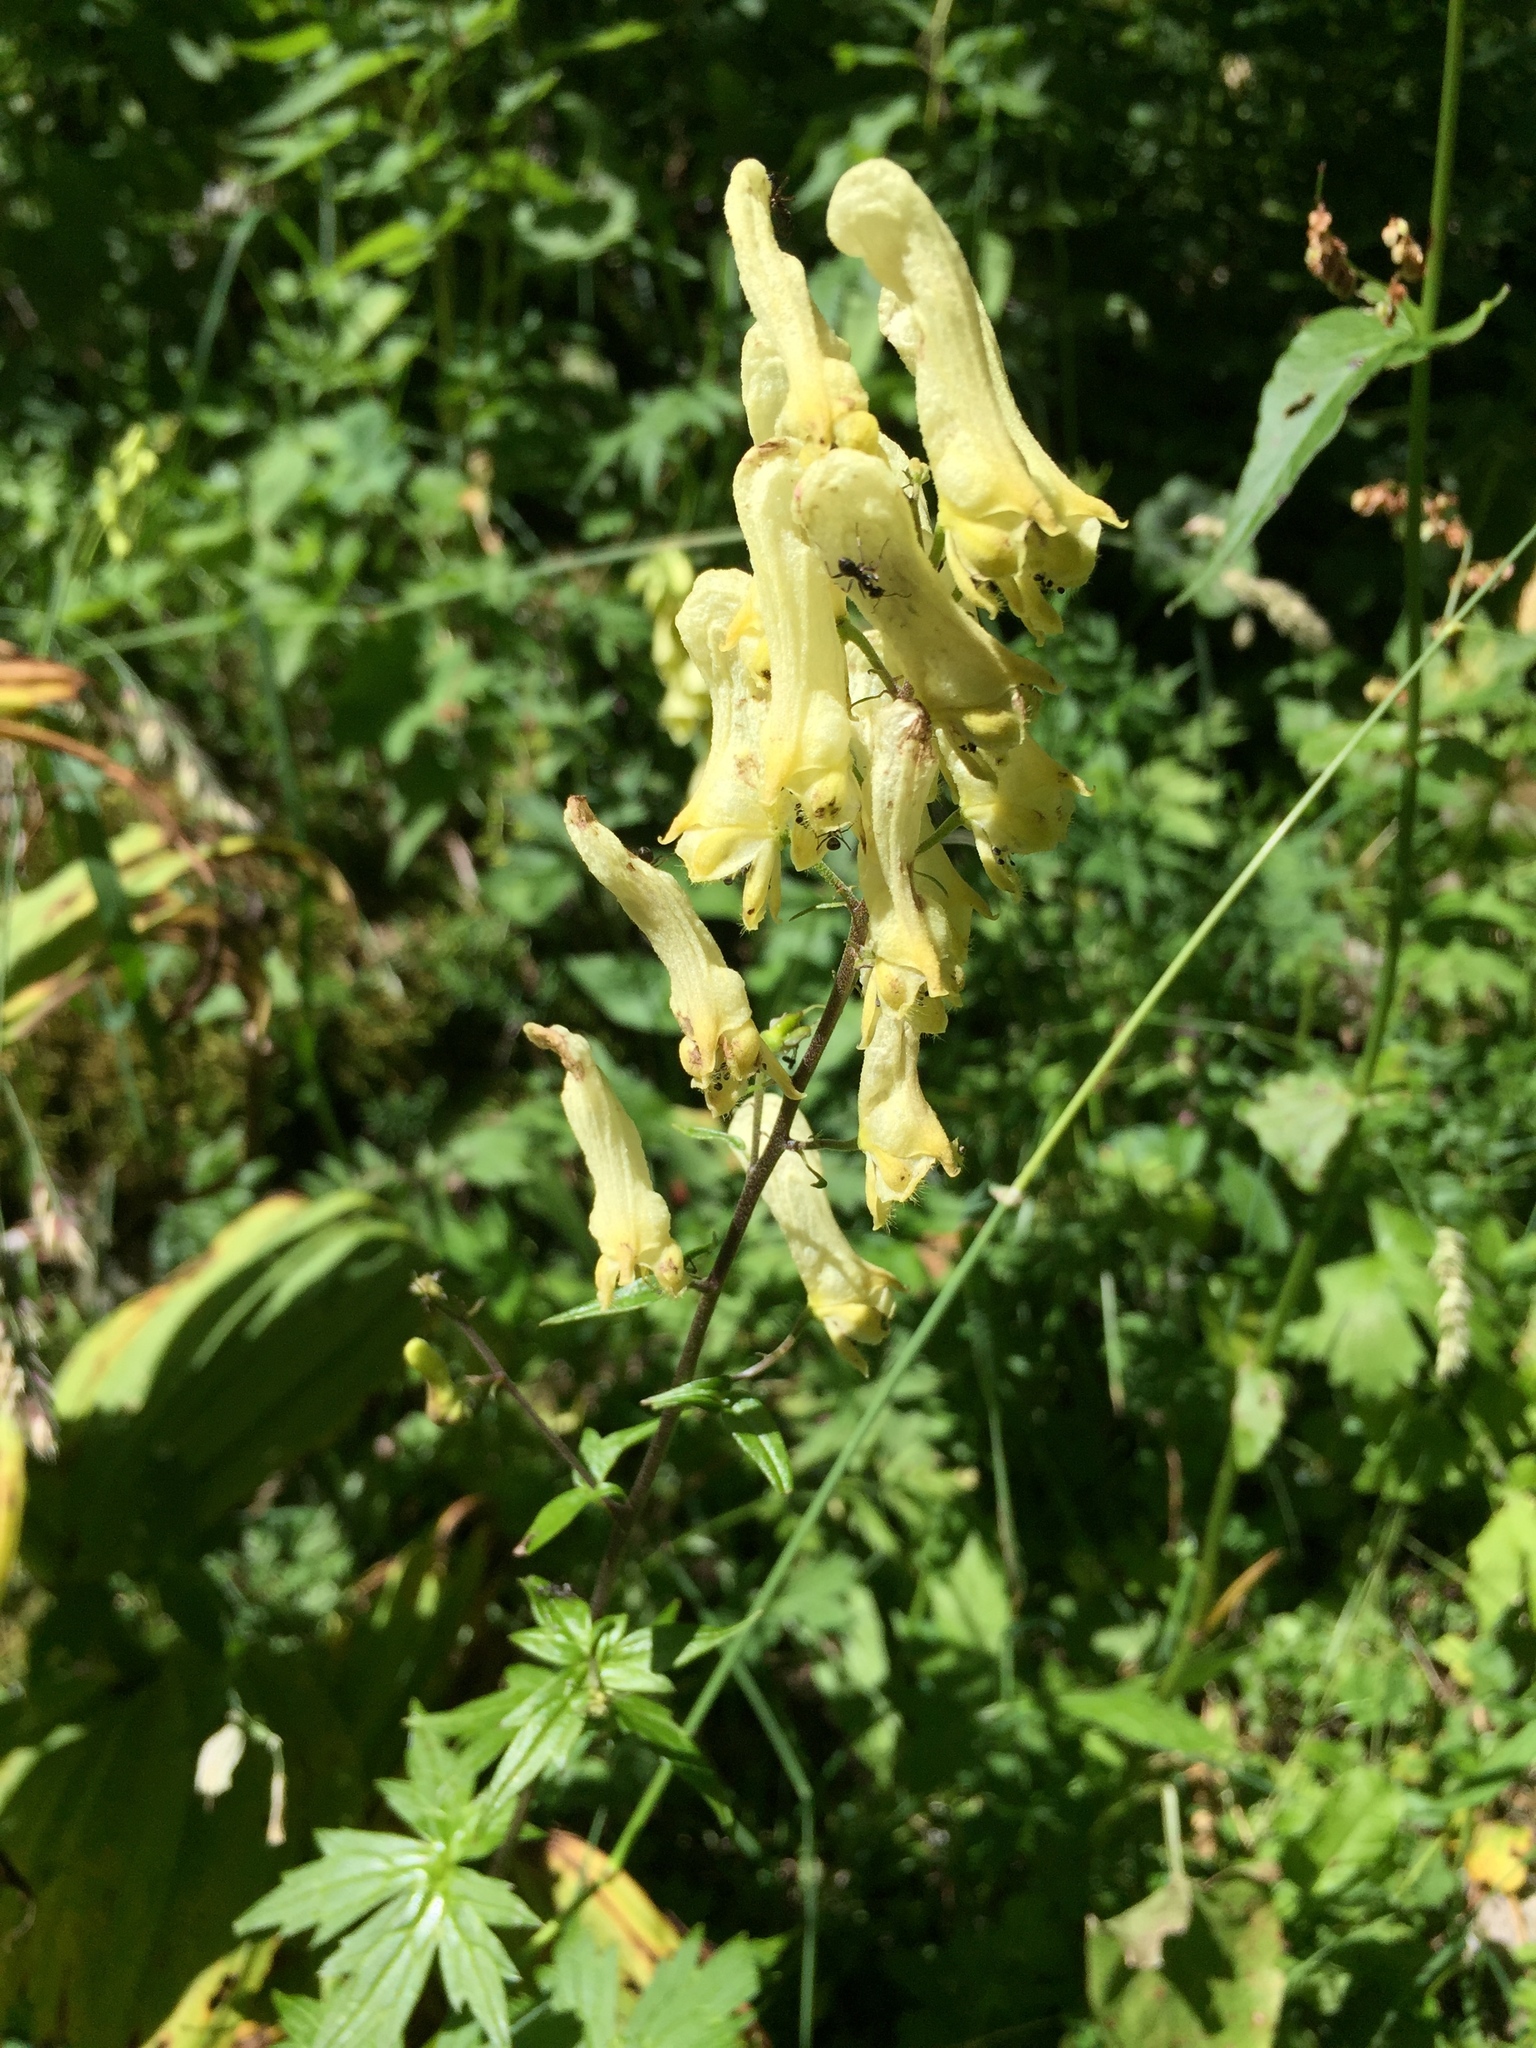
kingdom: Plantae
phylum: Tracheophyta
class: Magnoliopsida
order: Ranunculales
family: Ranunculaceae
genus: Aconitum
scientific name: Aconitum lycoctonum
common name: Wolf's-bane
